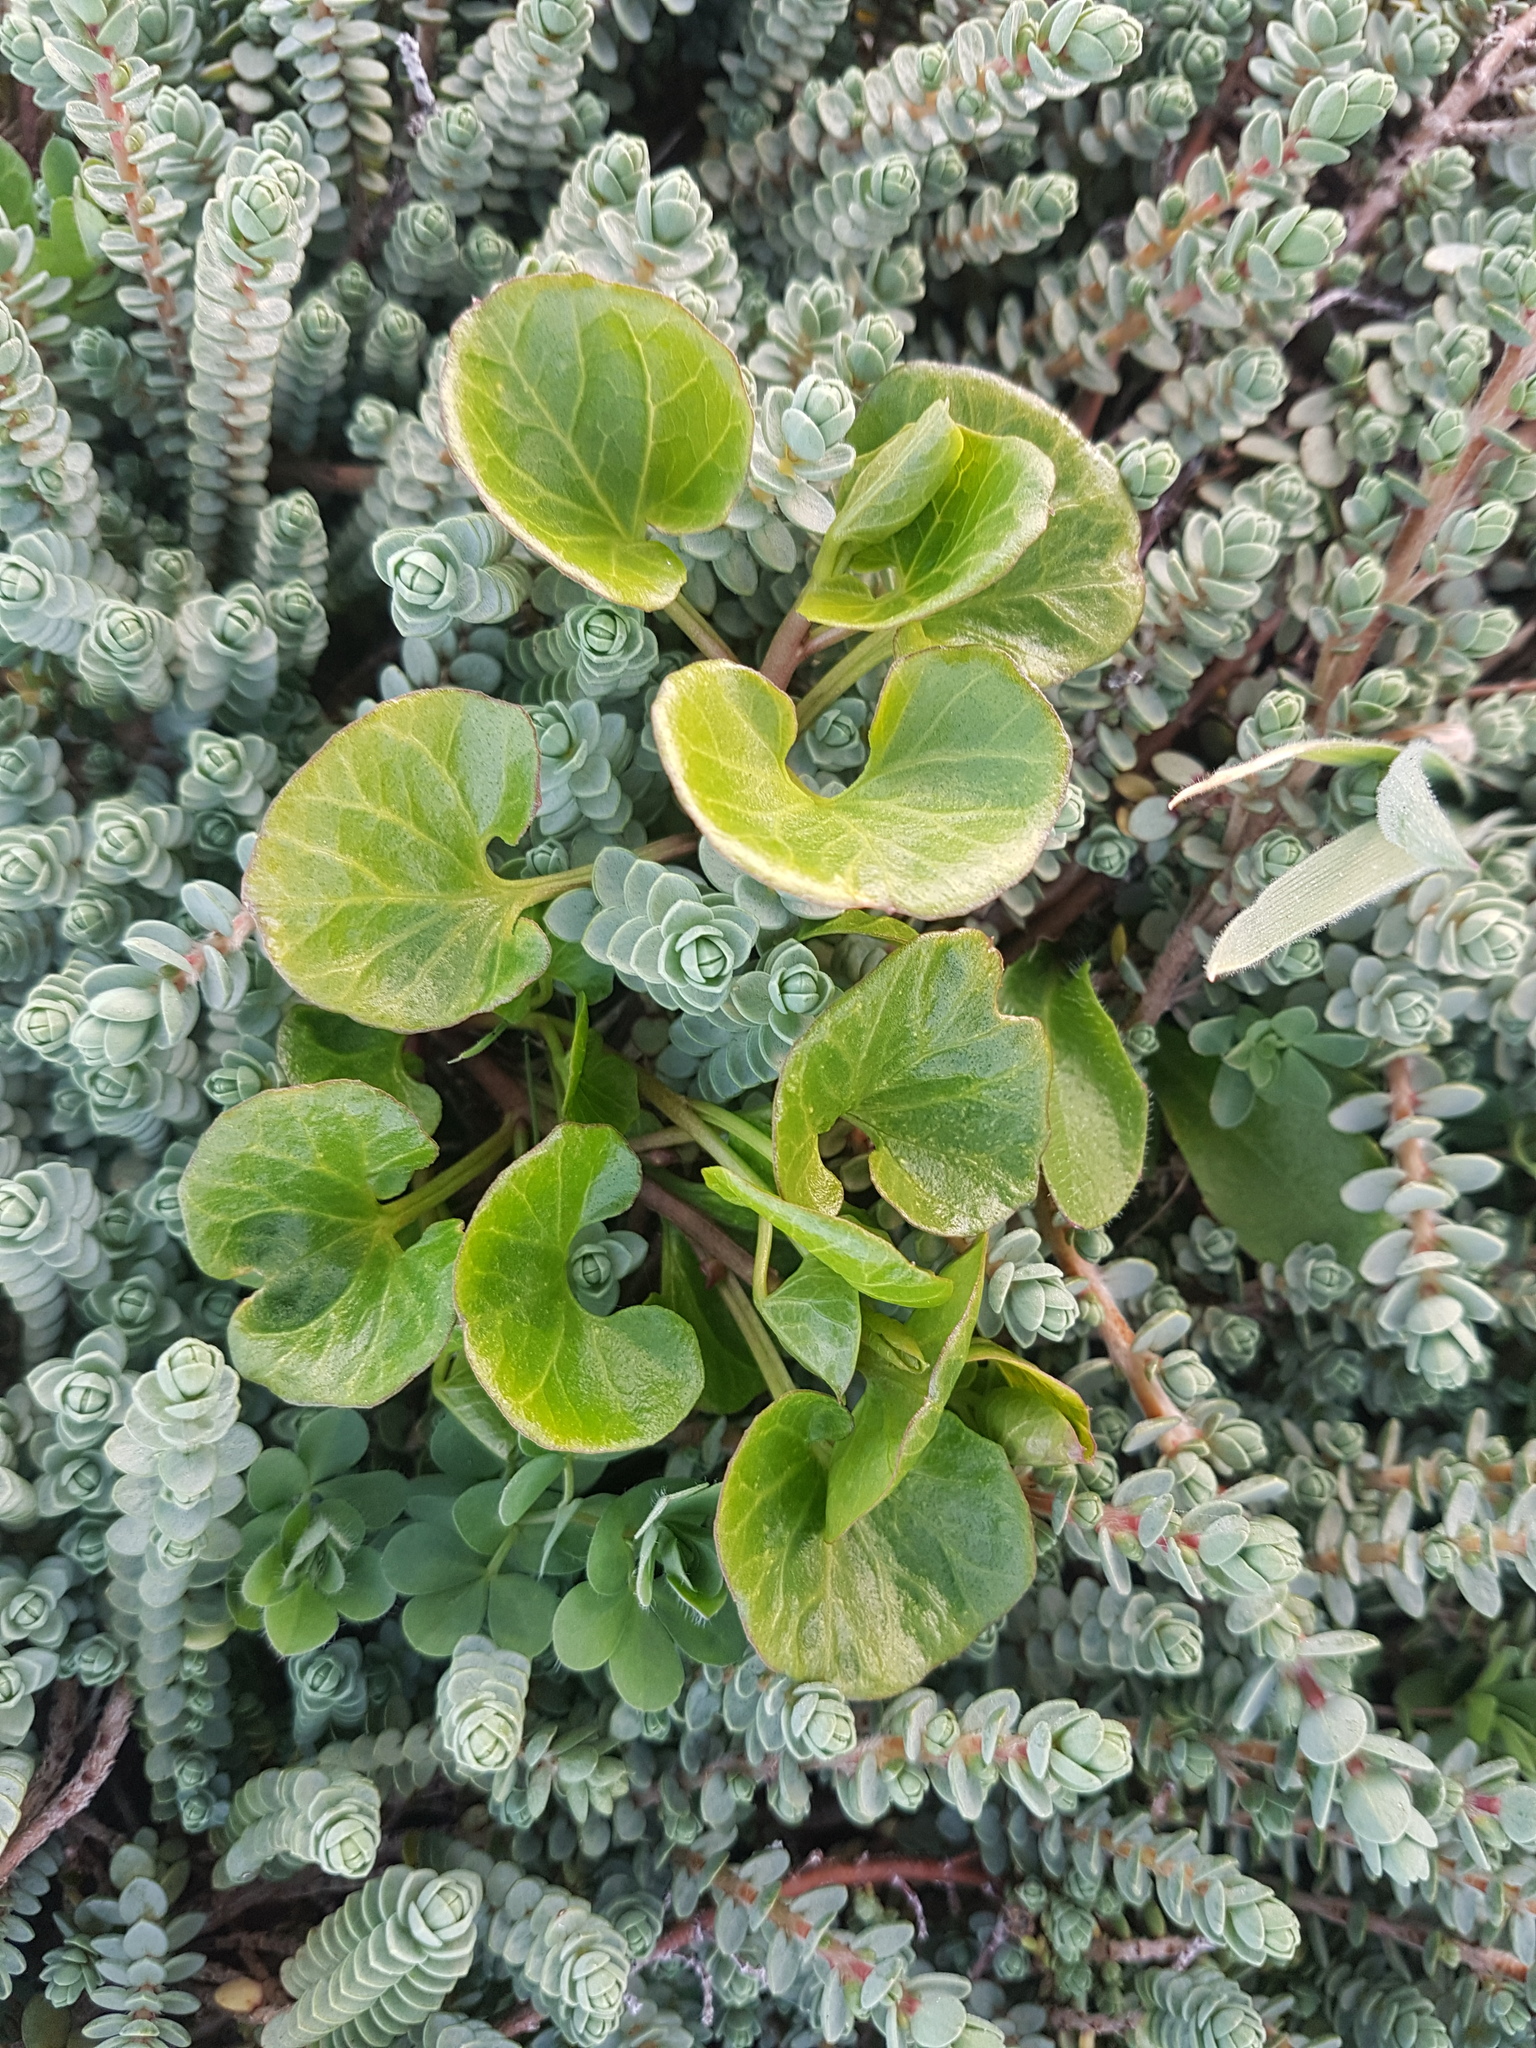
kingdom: Plantae
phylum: Tracheophyta
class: Magnoliopsida
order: Solanales
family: Convolvulaceae
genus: Calystegia
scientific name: Calystegia soldanella
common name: Sea bindweed
